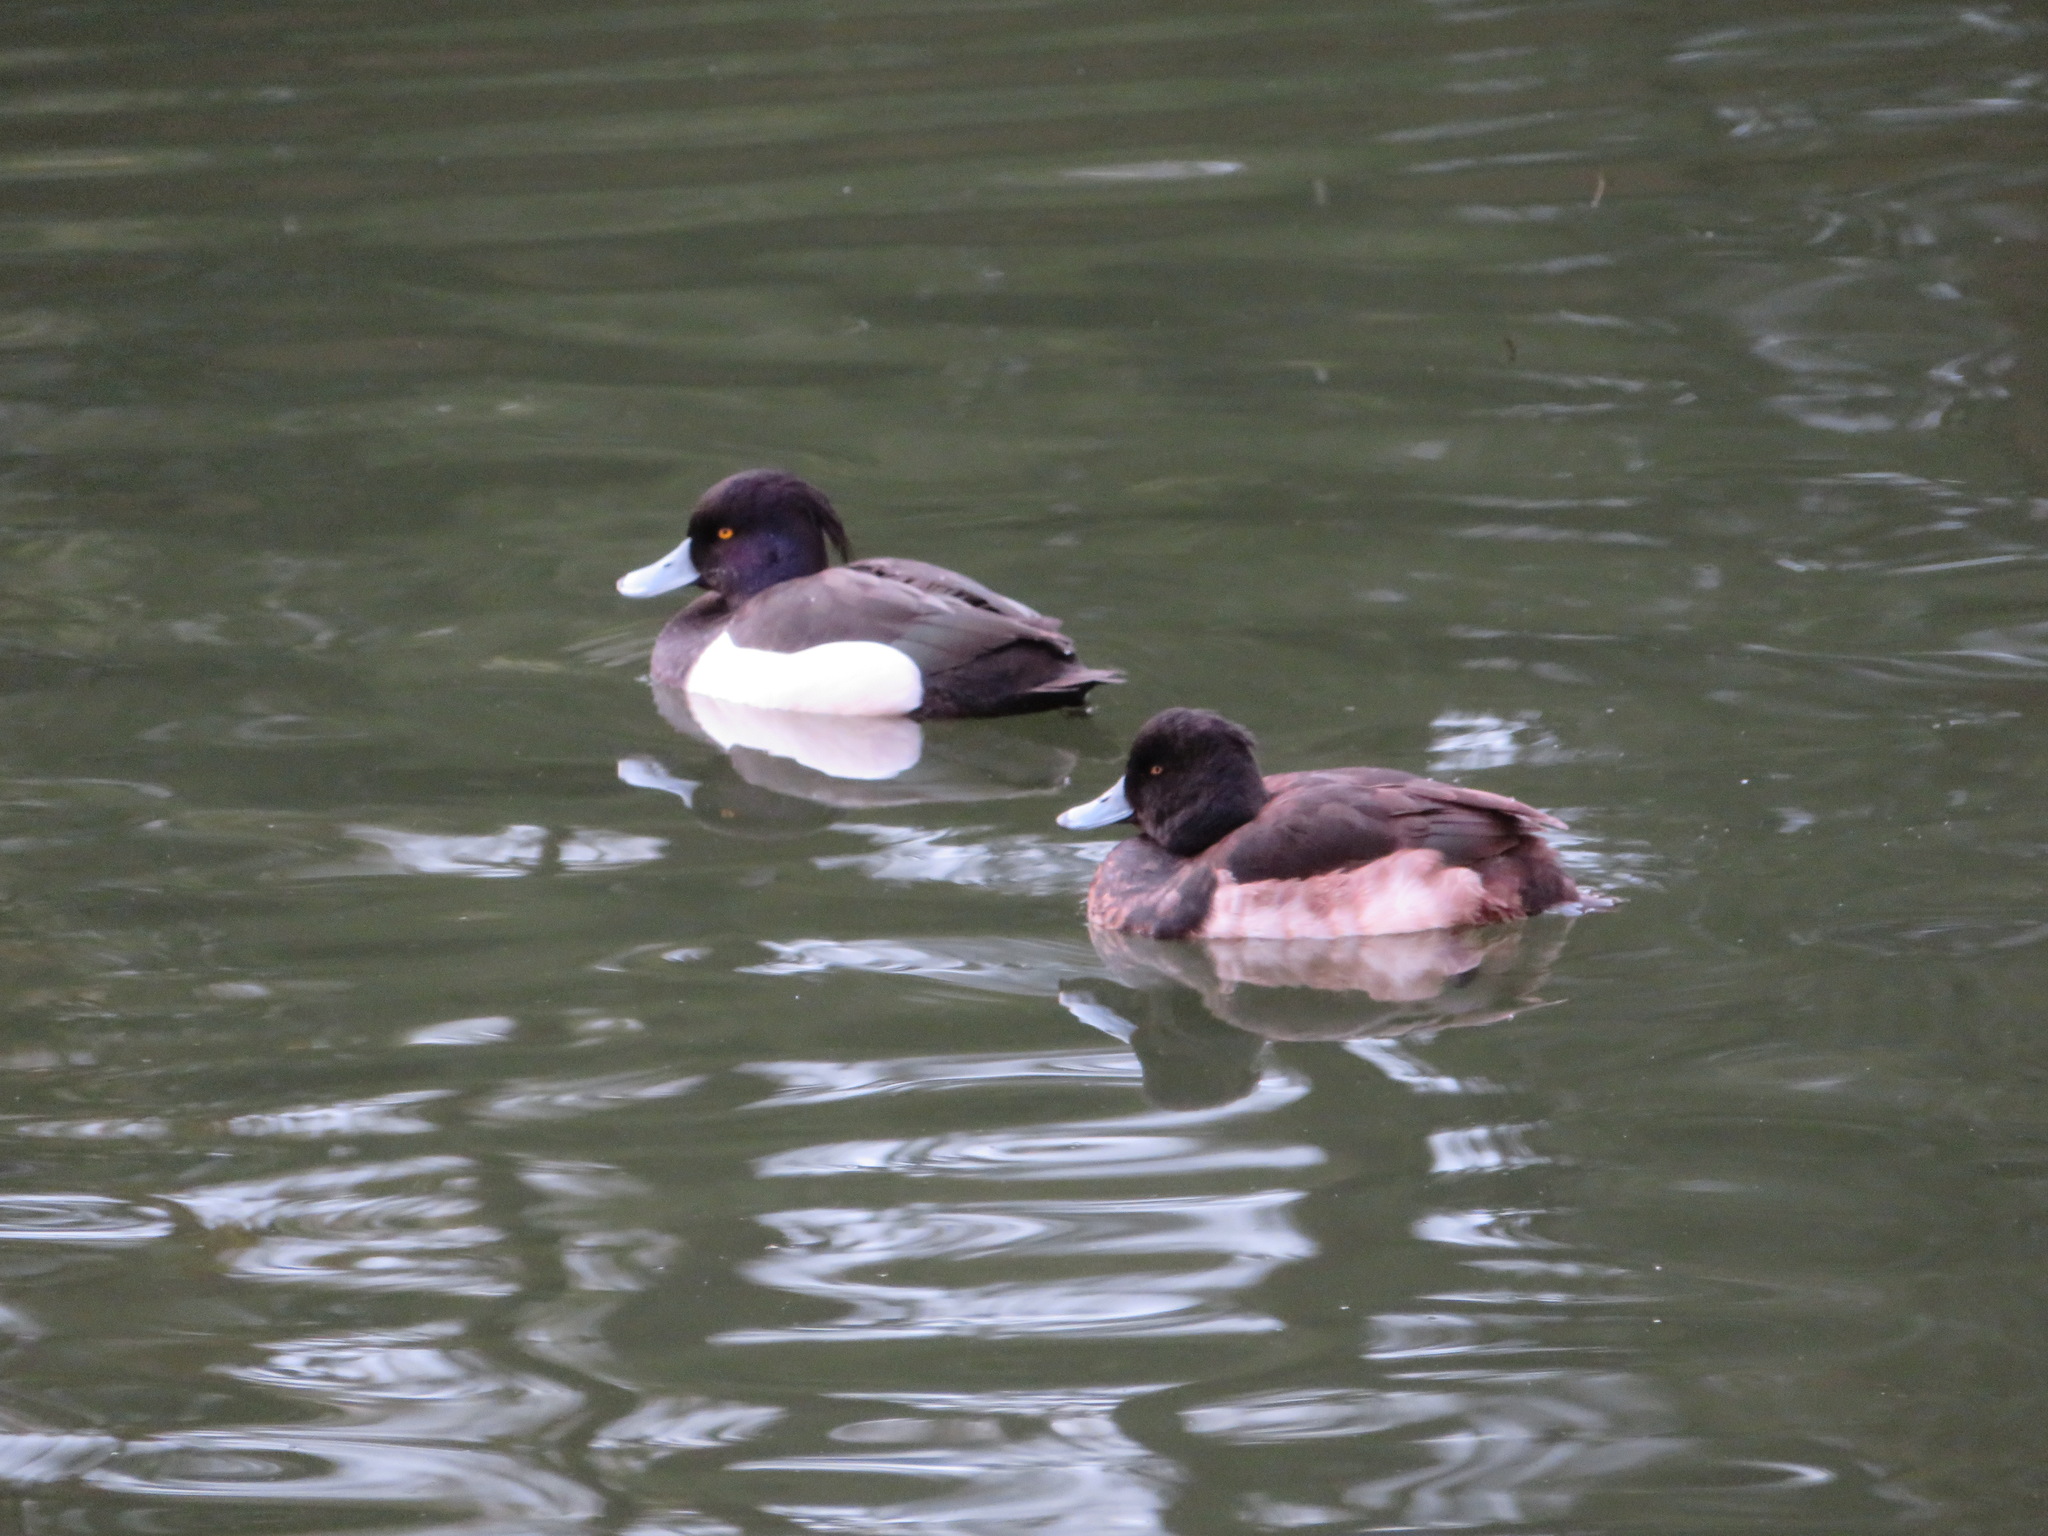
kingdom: Animalia
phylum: Chordata
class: Aves
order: Anseriformes
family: Anatidae
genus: Aythya
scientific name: Aythya fuligula
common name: Tufted duck
